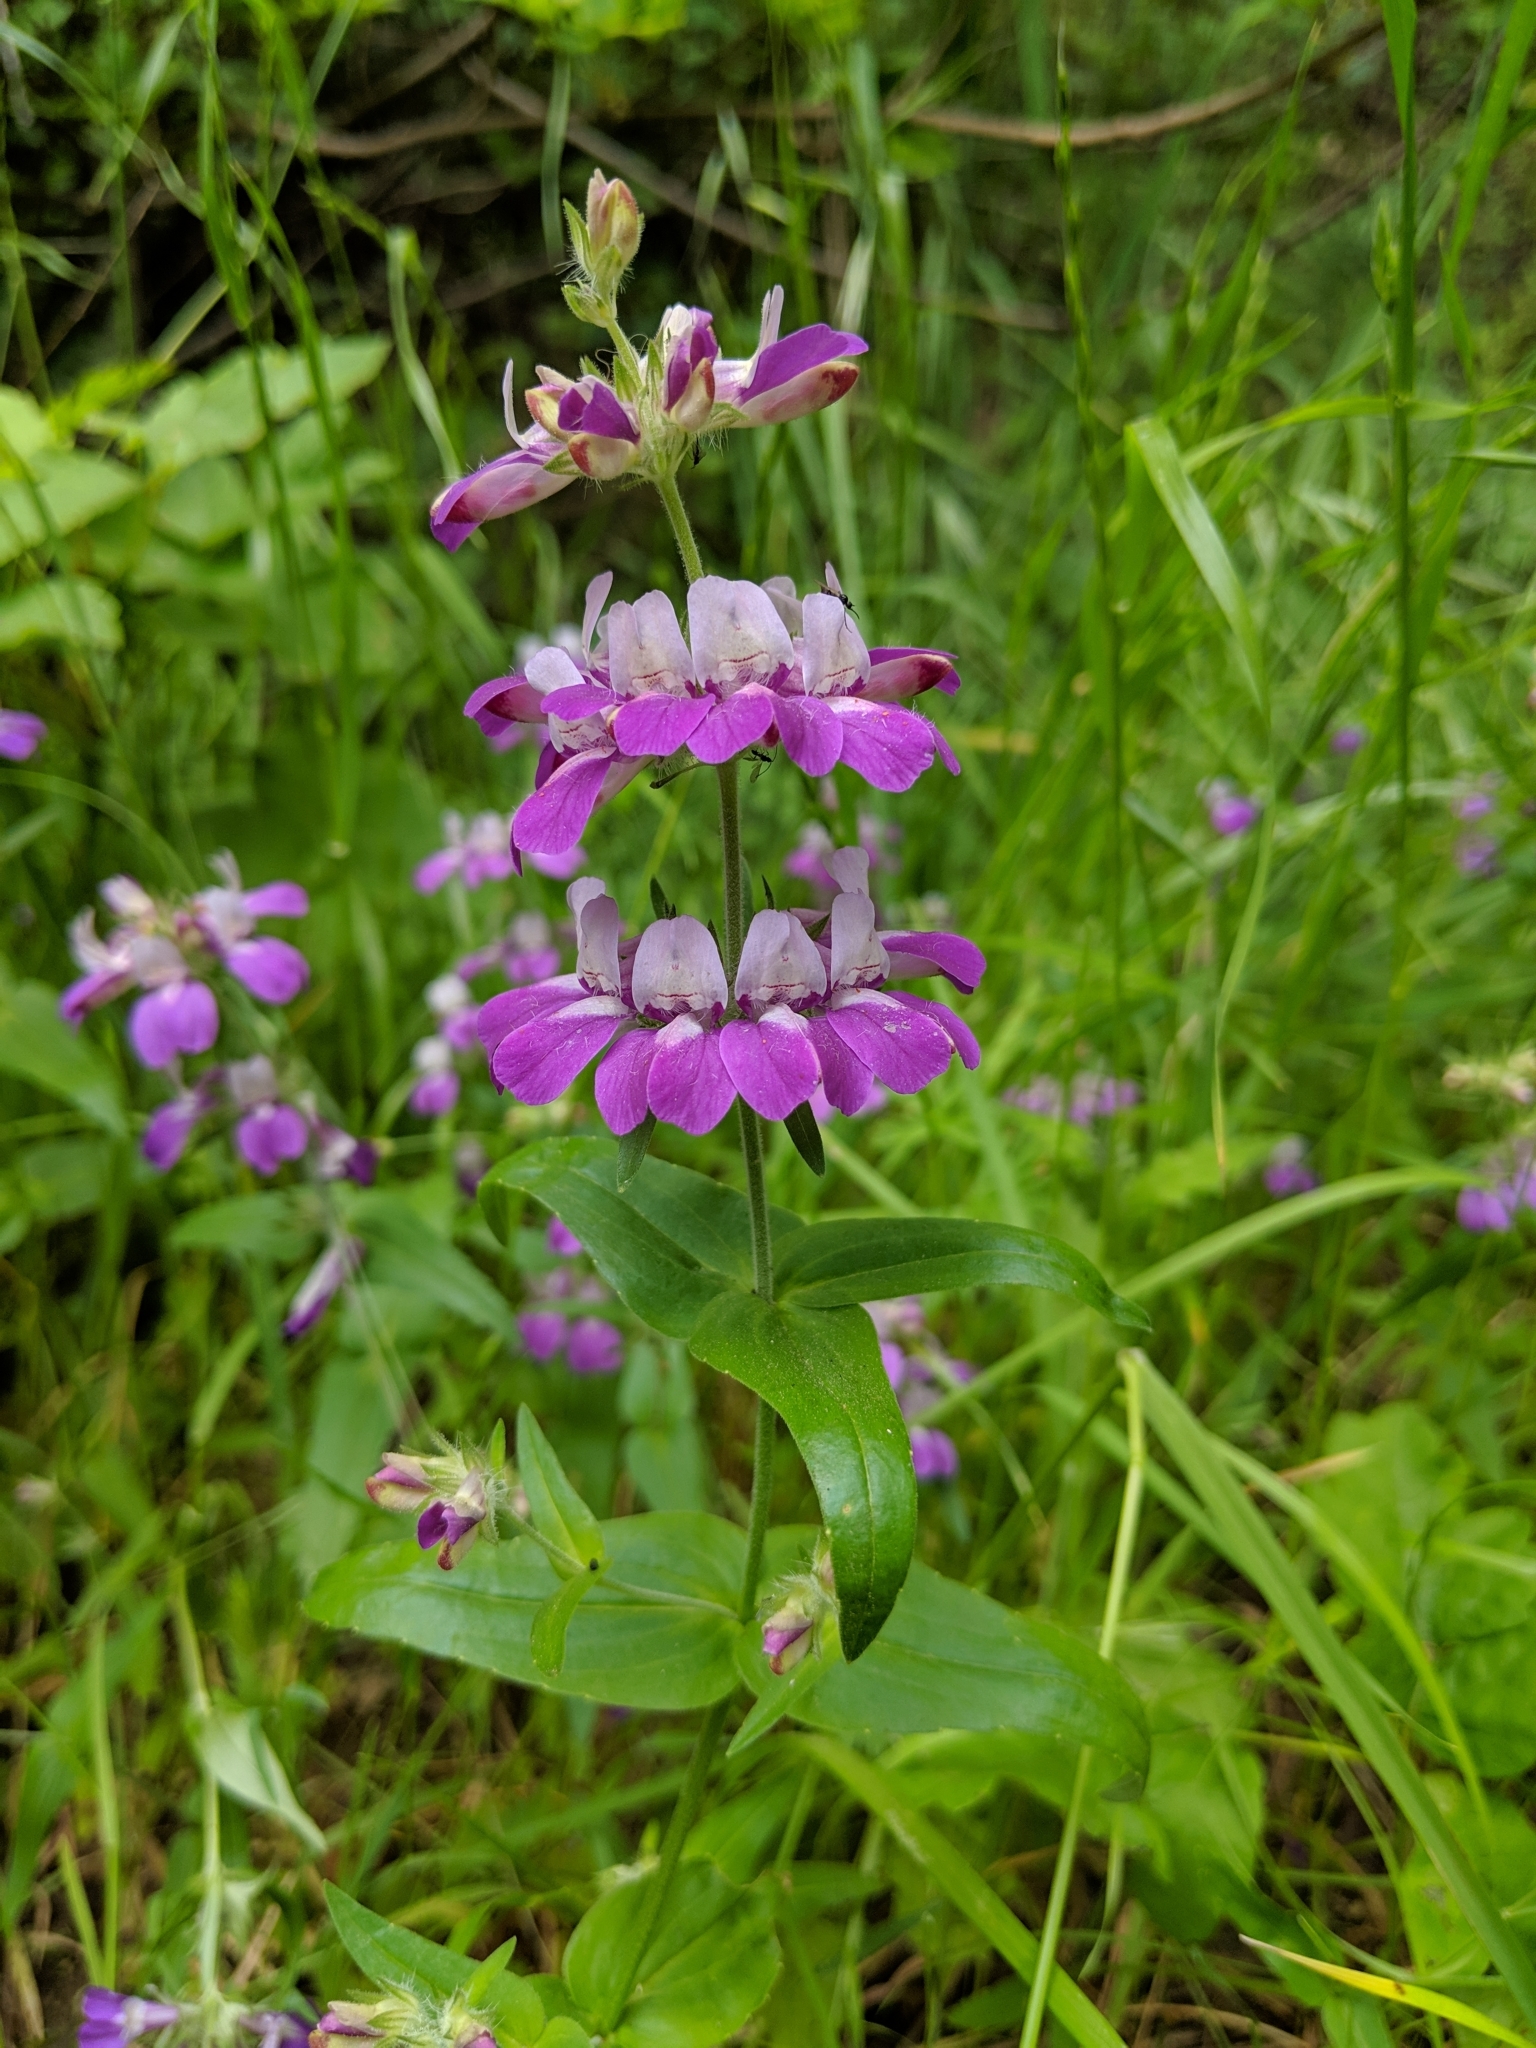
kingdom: Plantae
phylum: Tracheophyta
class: Magnoliopsida
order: Lamiales
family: Plantaginaceae
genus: Collinsia
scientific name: Collinsia heterophylla
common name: Chinese-houses
